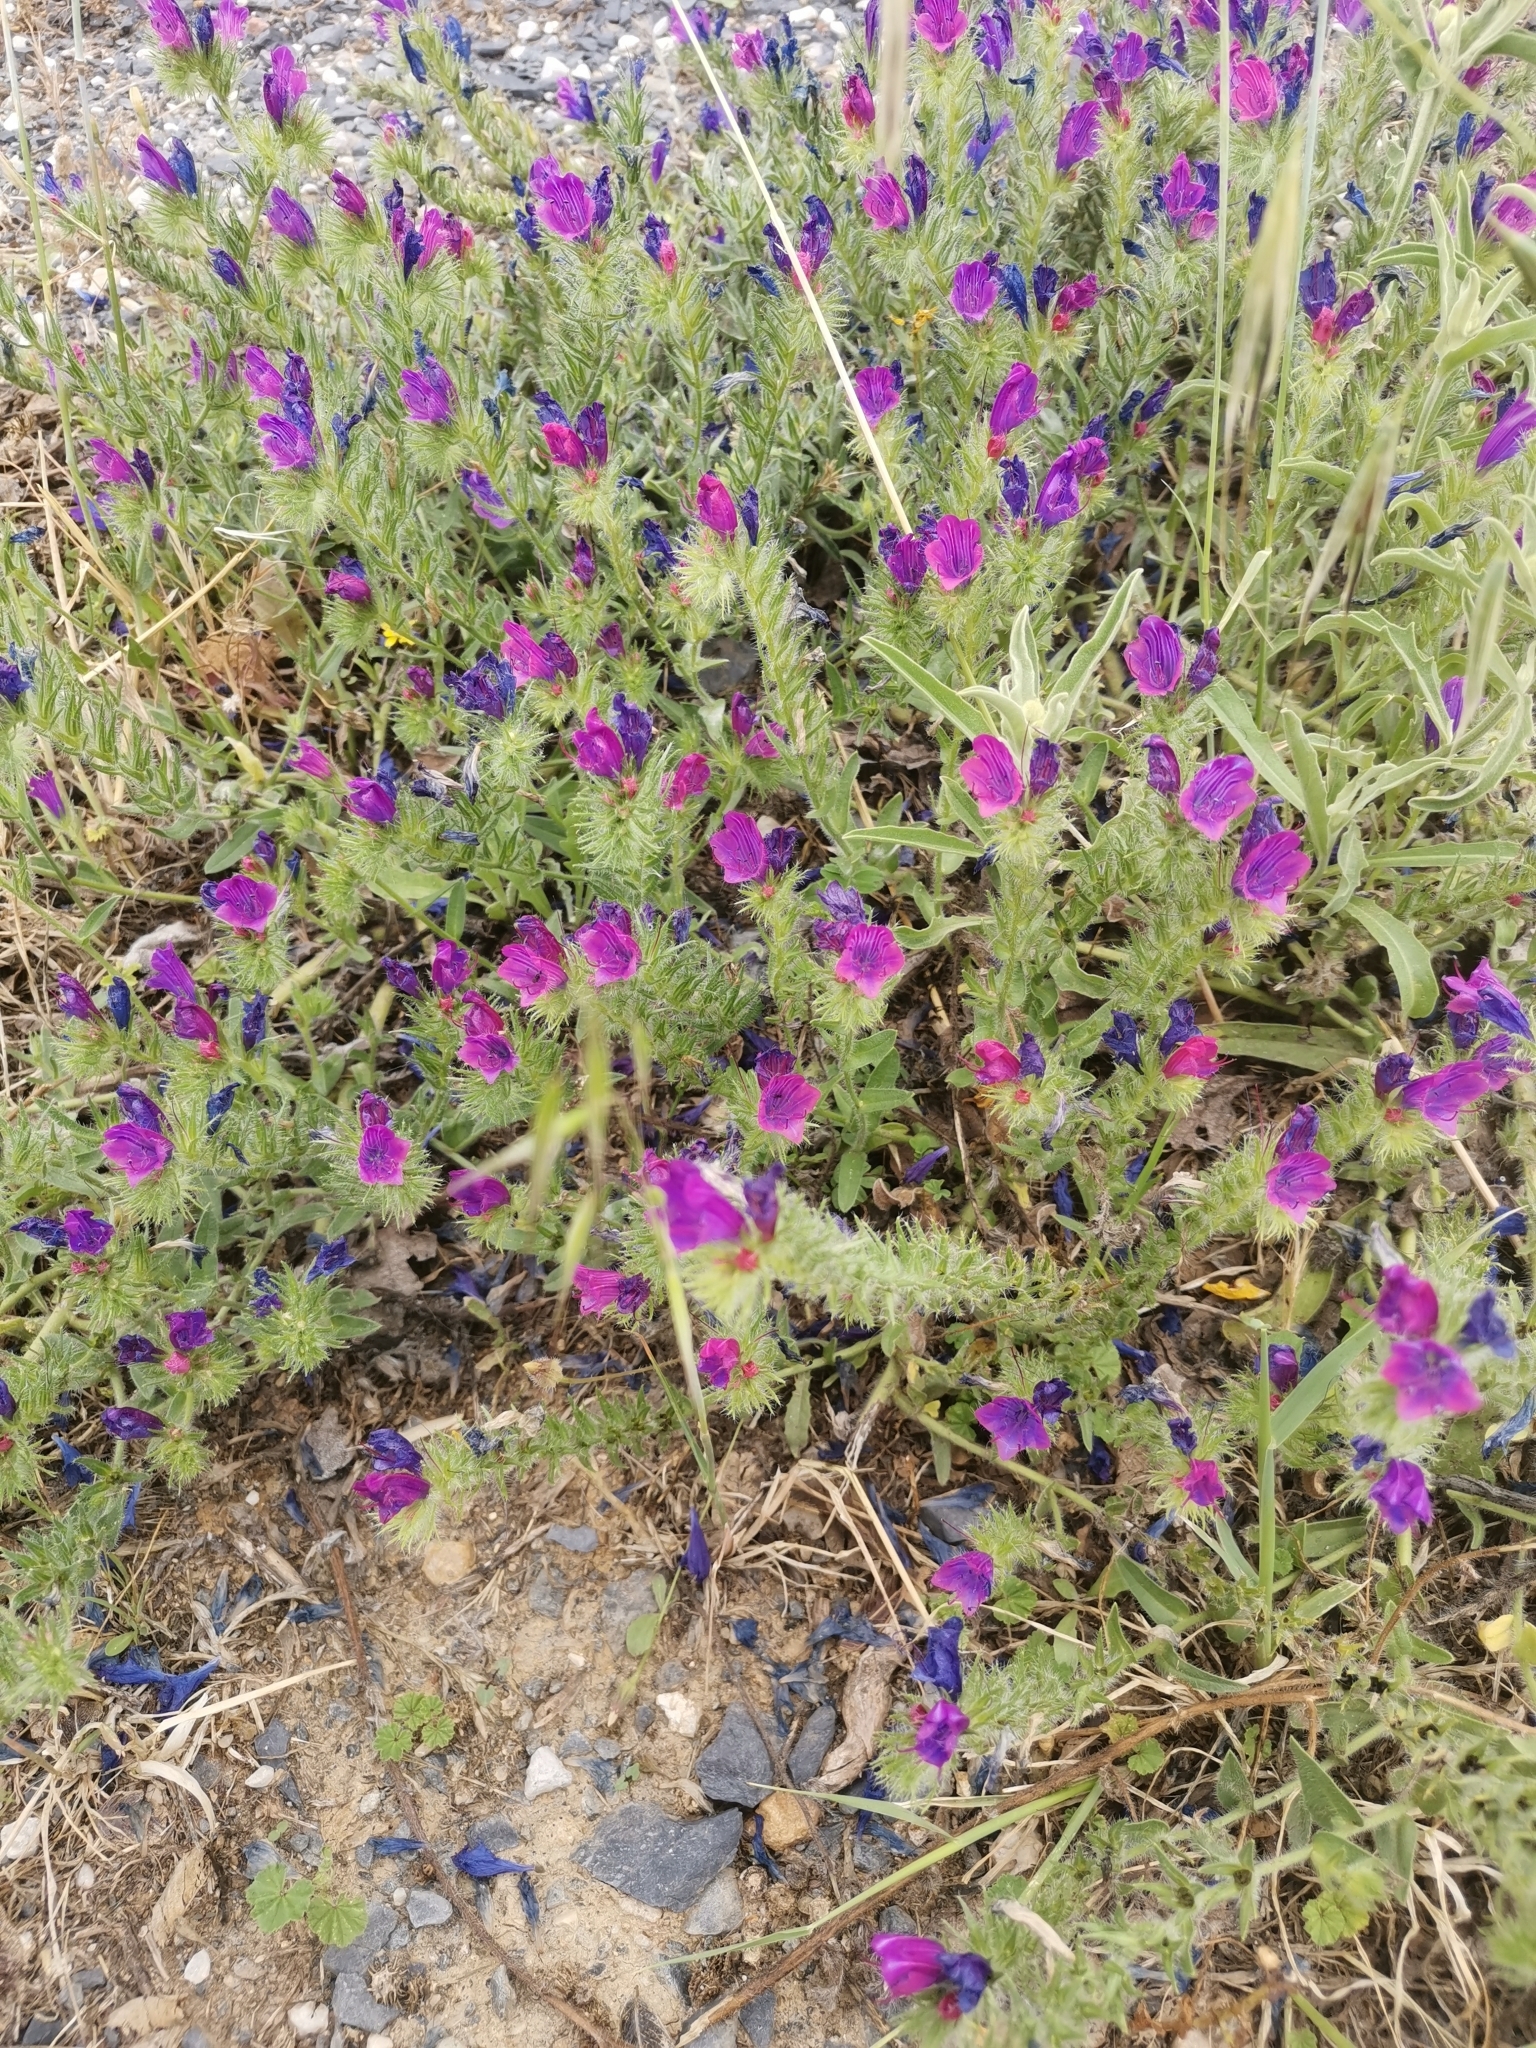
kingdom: Plantae
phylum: Tracheophyta
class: Magnoliopsida
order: Boraginales
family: Boraginaceae
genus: Echium
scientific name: Echium plantagineum
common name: Purple viper's-bugloss
